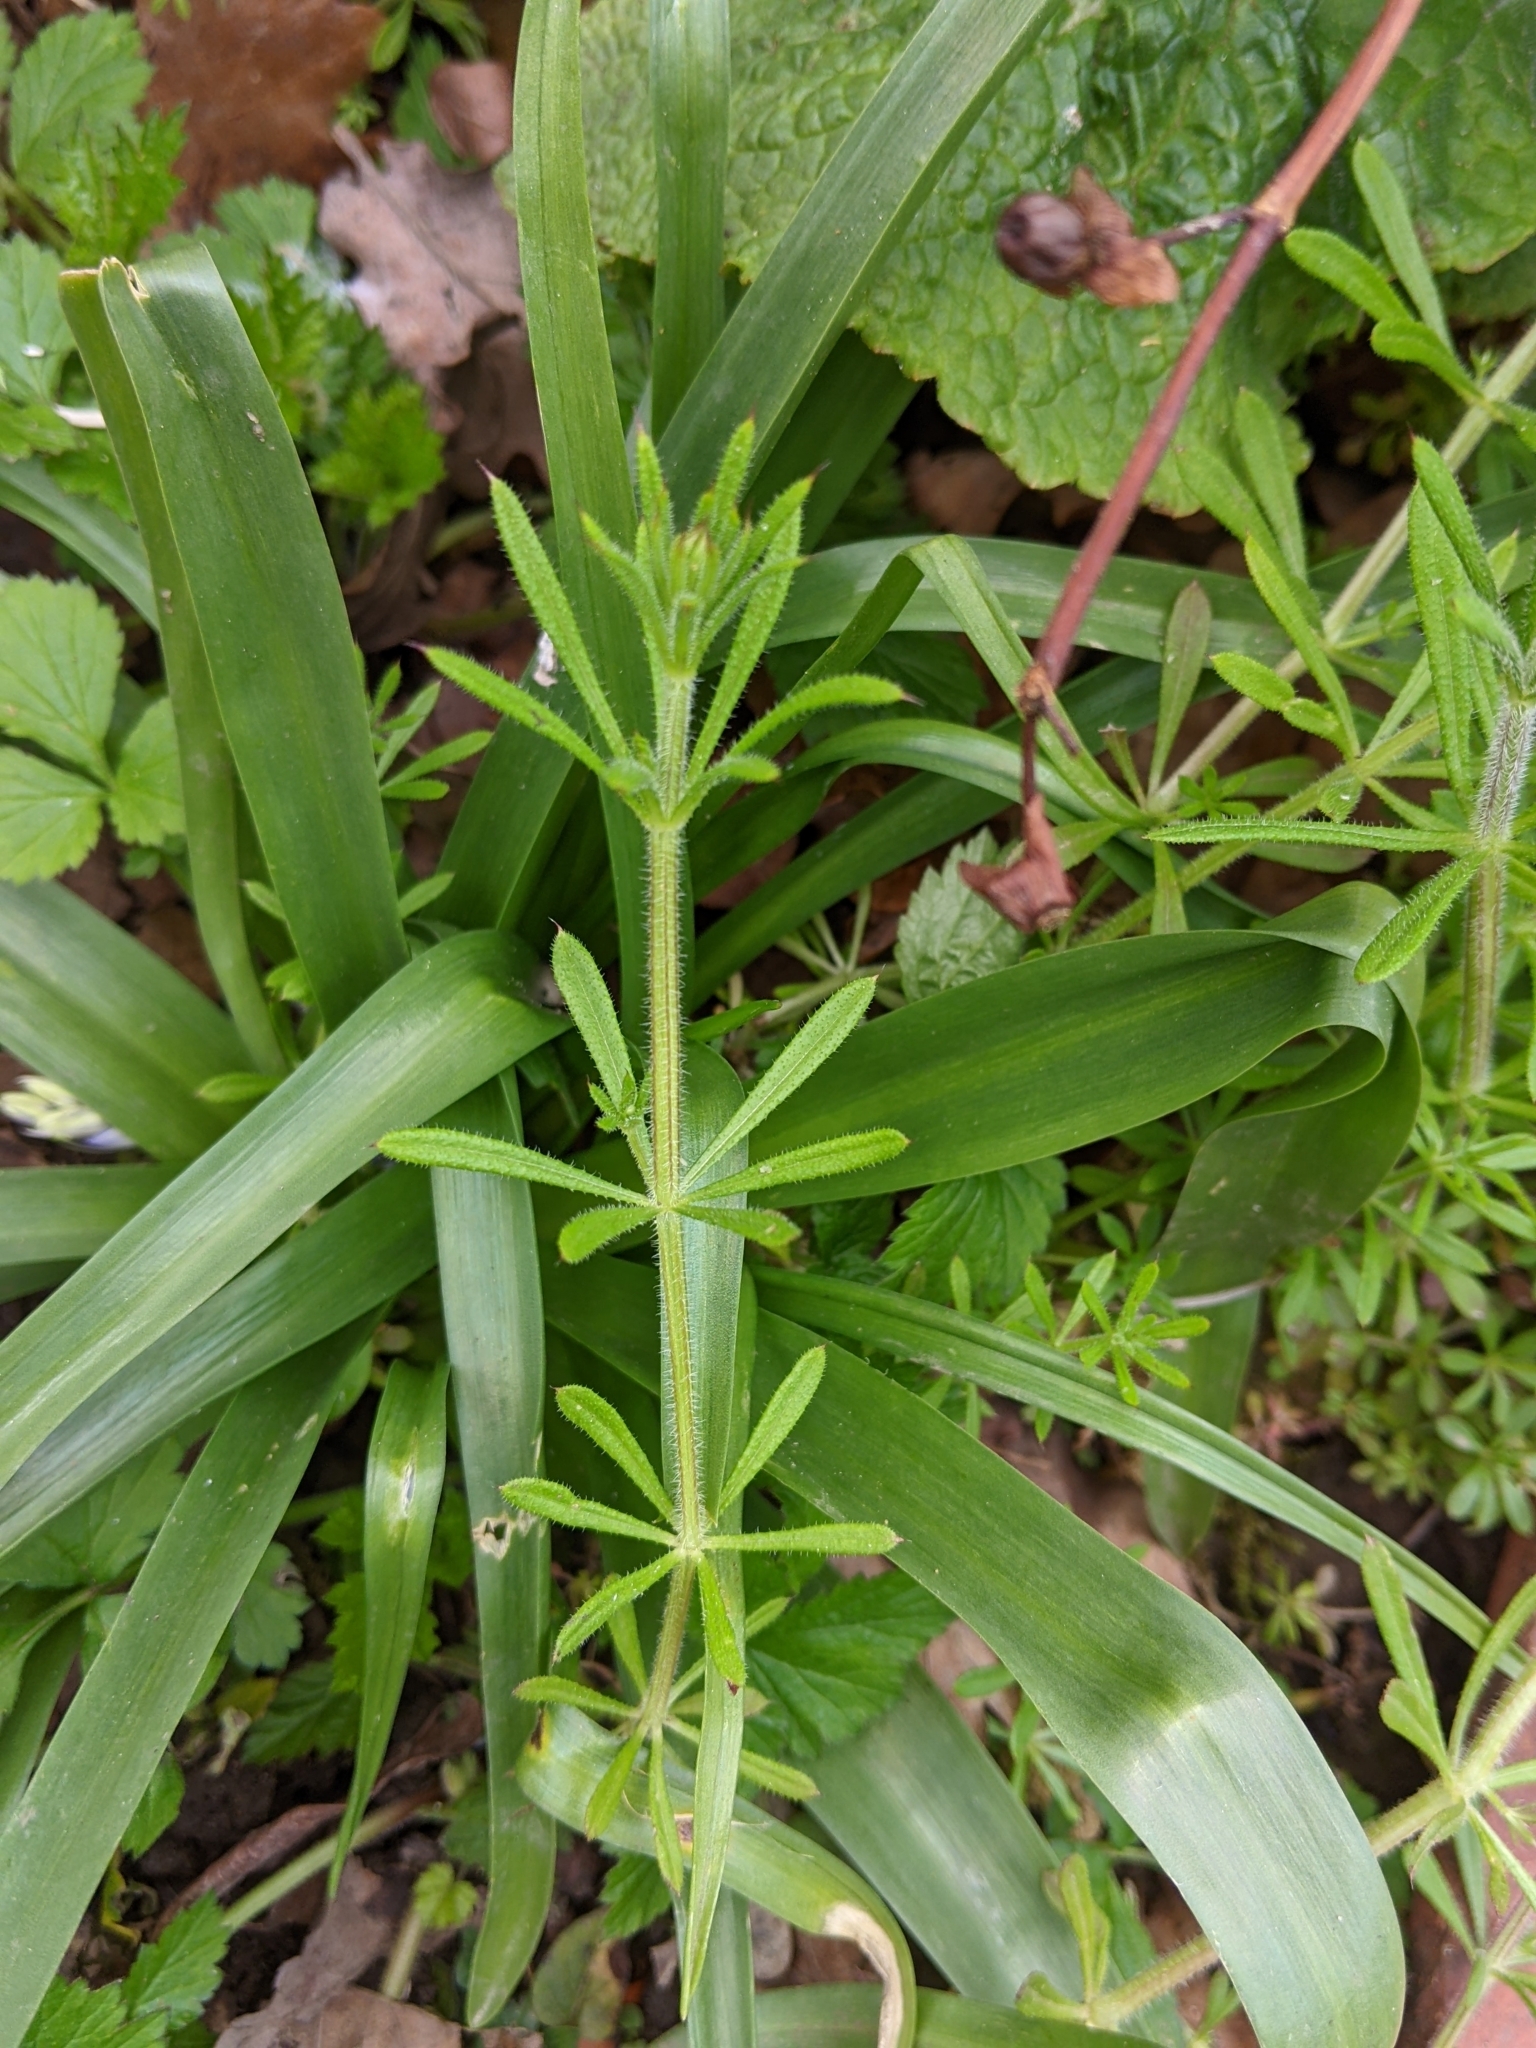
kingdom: Plantae
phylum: Tracheophyta
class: Magnoliopsida
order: Gentianales
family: Rubiaceae
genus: Galium
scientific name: Galium aparine
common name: Cleavers
